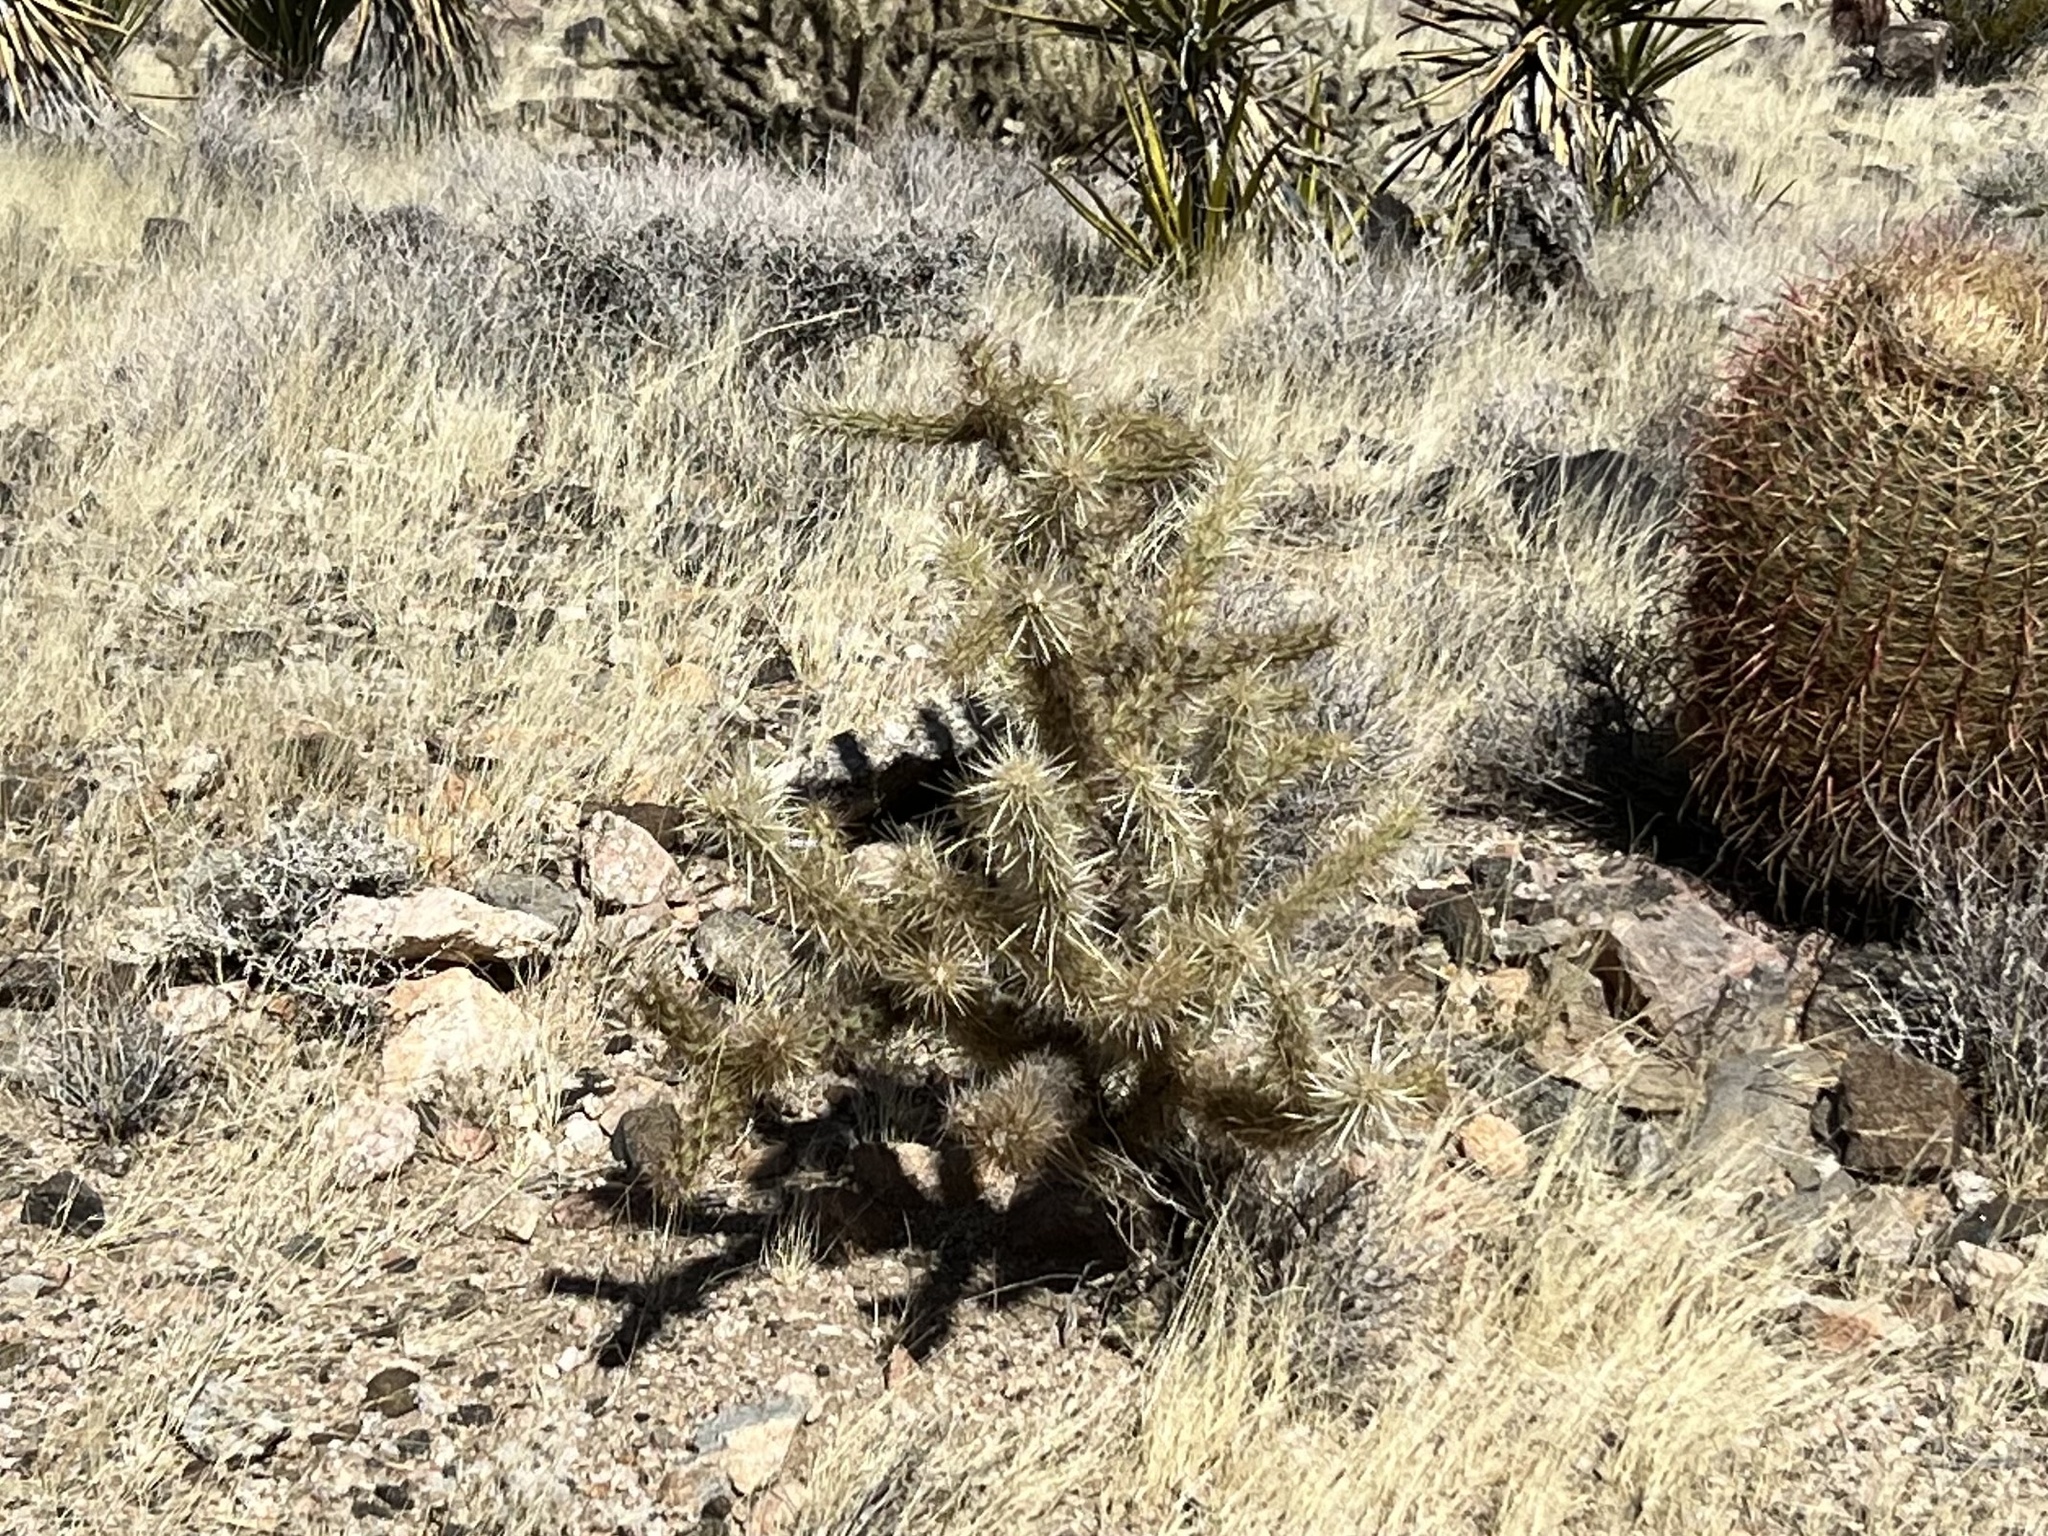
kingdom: Plantae
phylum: Tracheophyta
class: Magnoliopsida
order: Caryophyllales
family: Cactaceae
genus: Cylindropuntia
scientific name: Cylindropuntia echinocarpa
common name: Ground cholla
